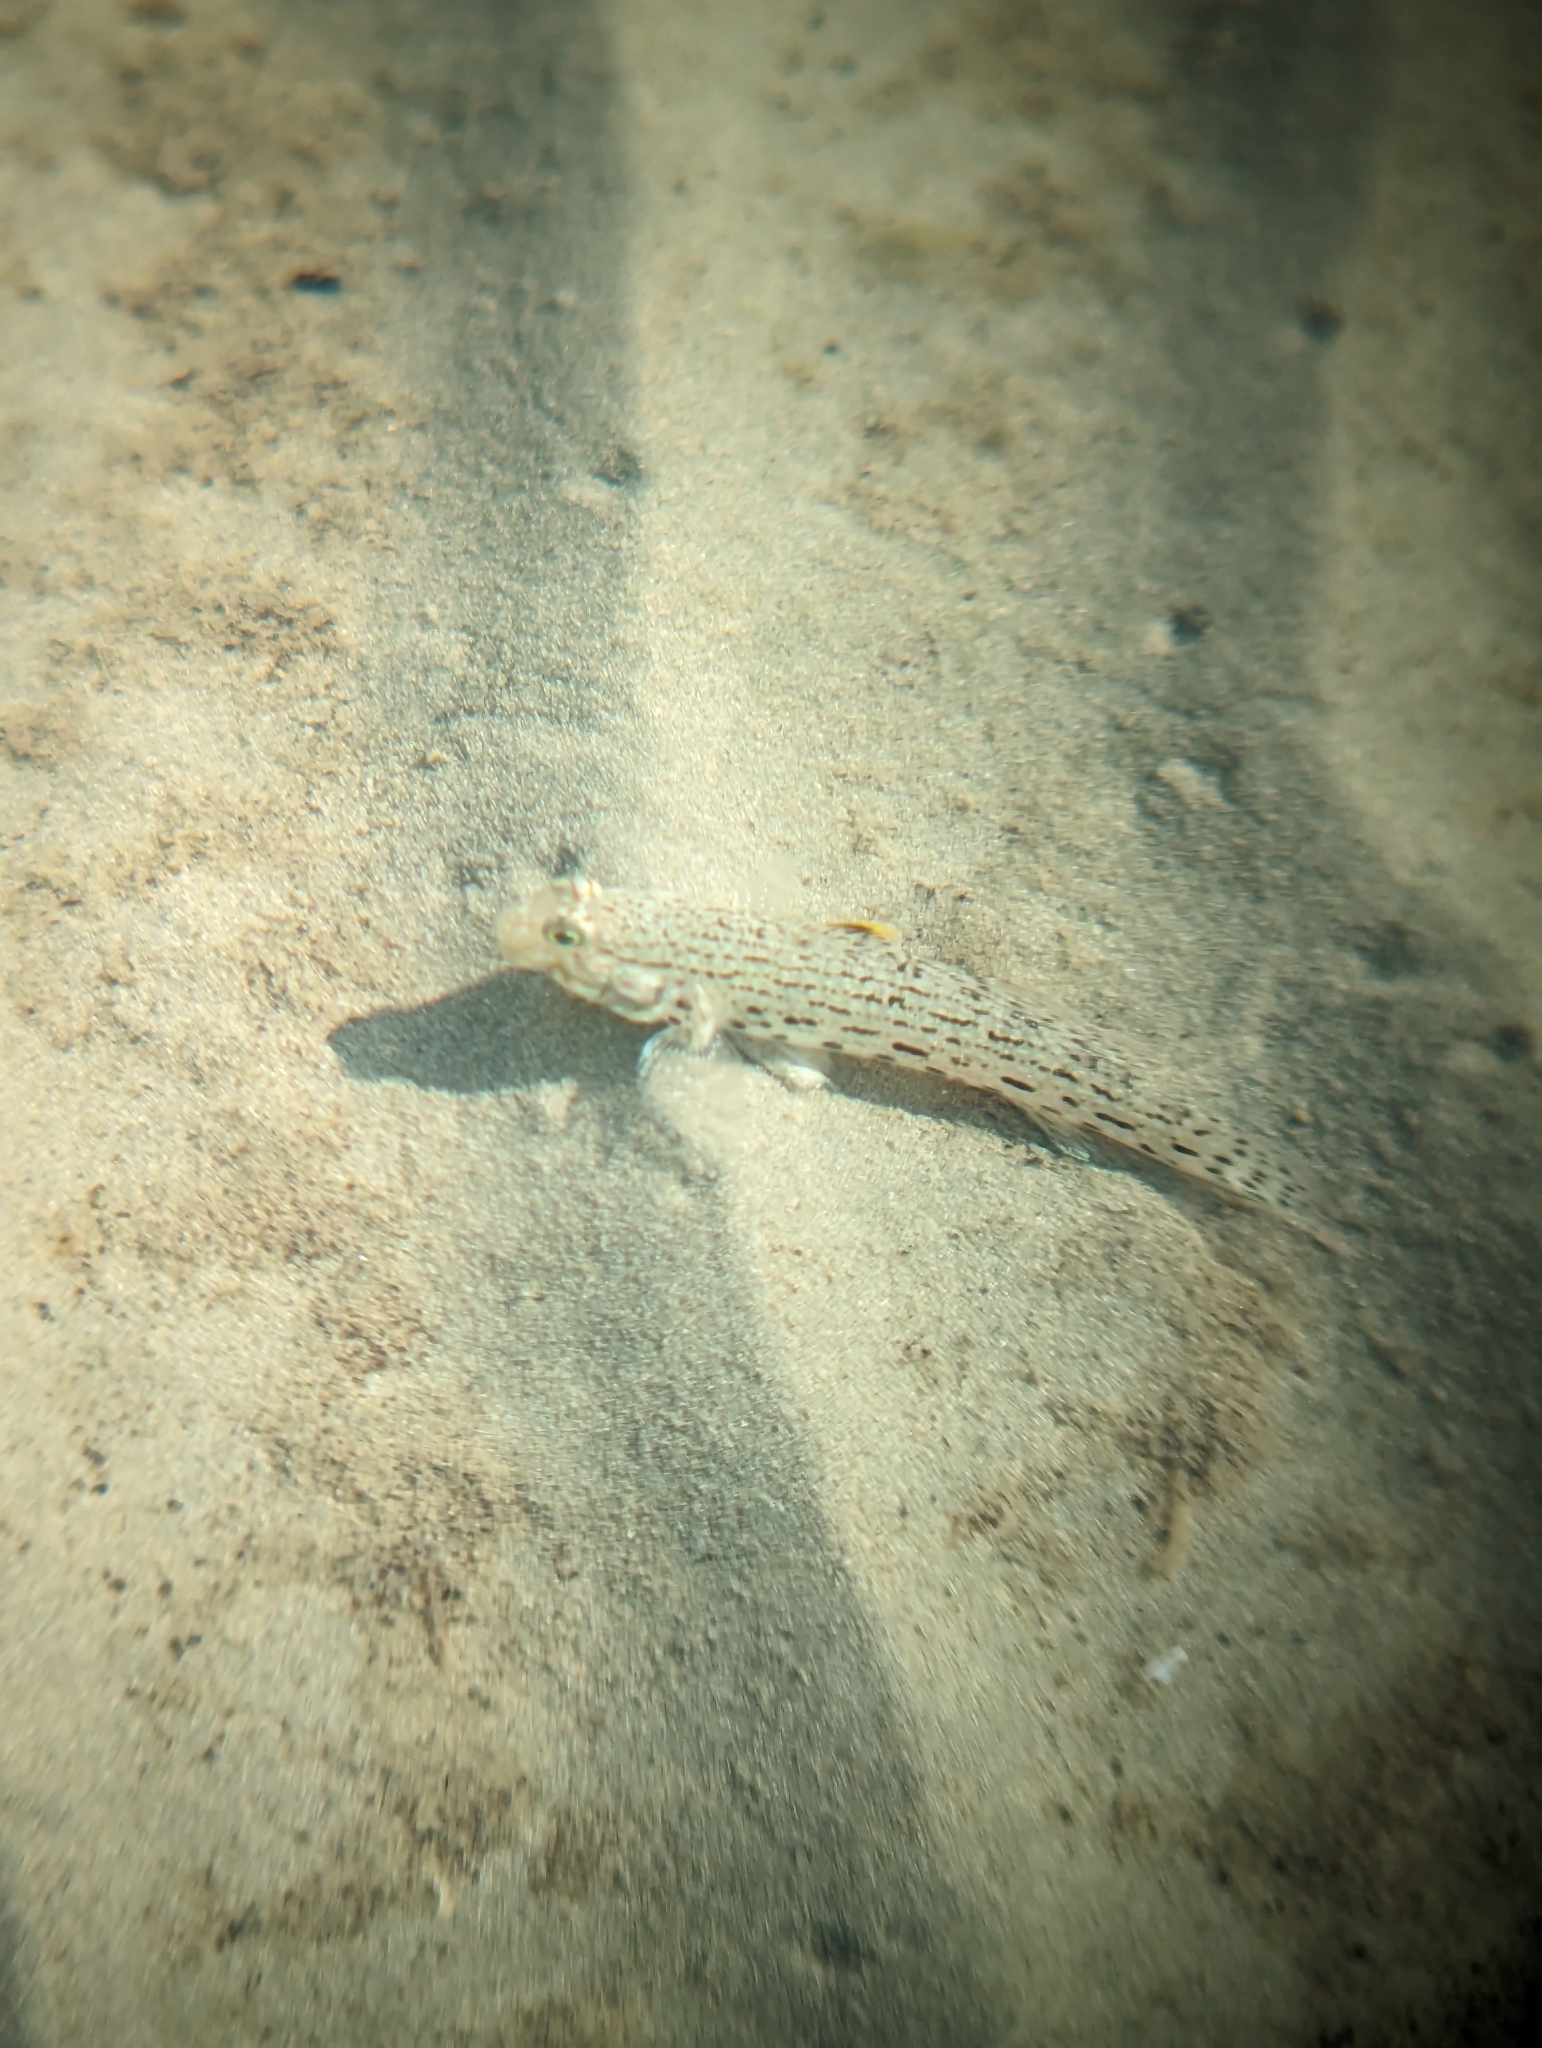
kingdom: Animalia
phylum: Chordata
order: Perciformes
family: Gobiidae
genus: Istigobius
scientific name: Istigobius ornatus
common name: Ornate goby
